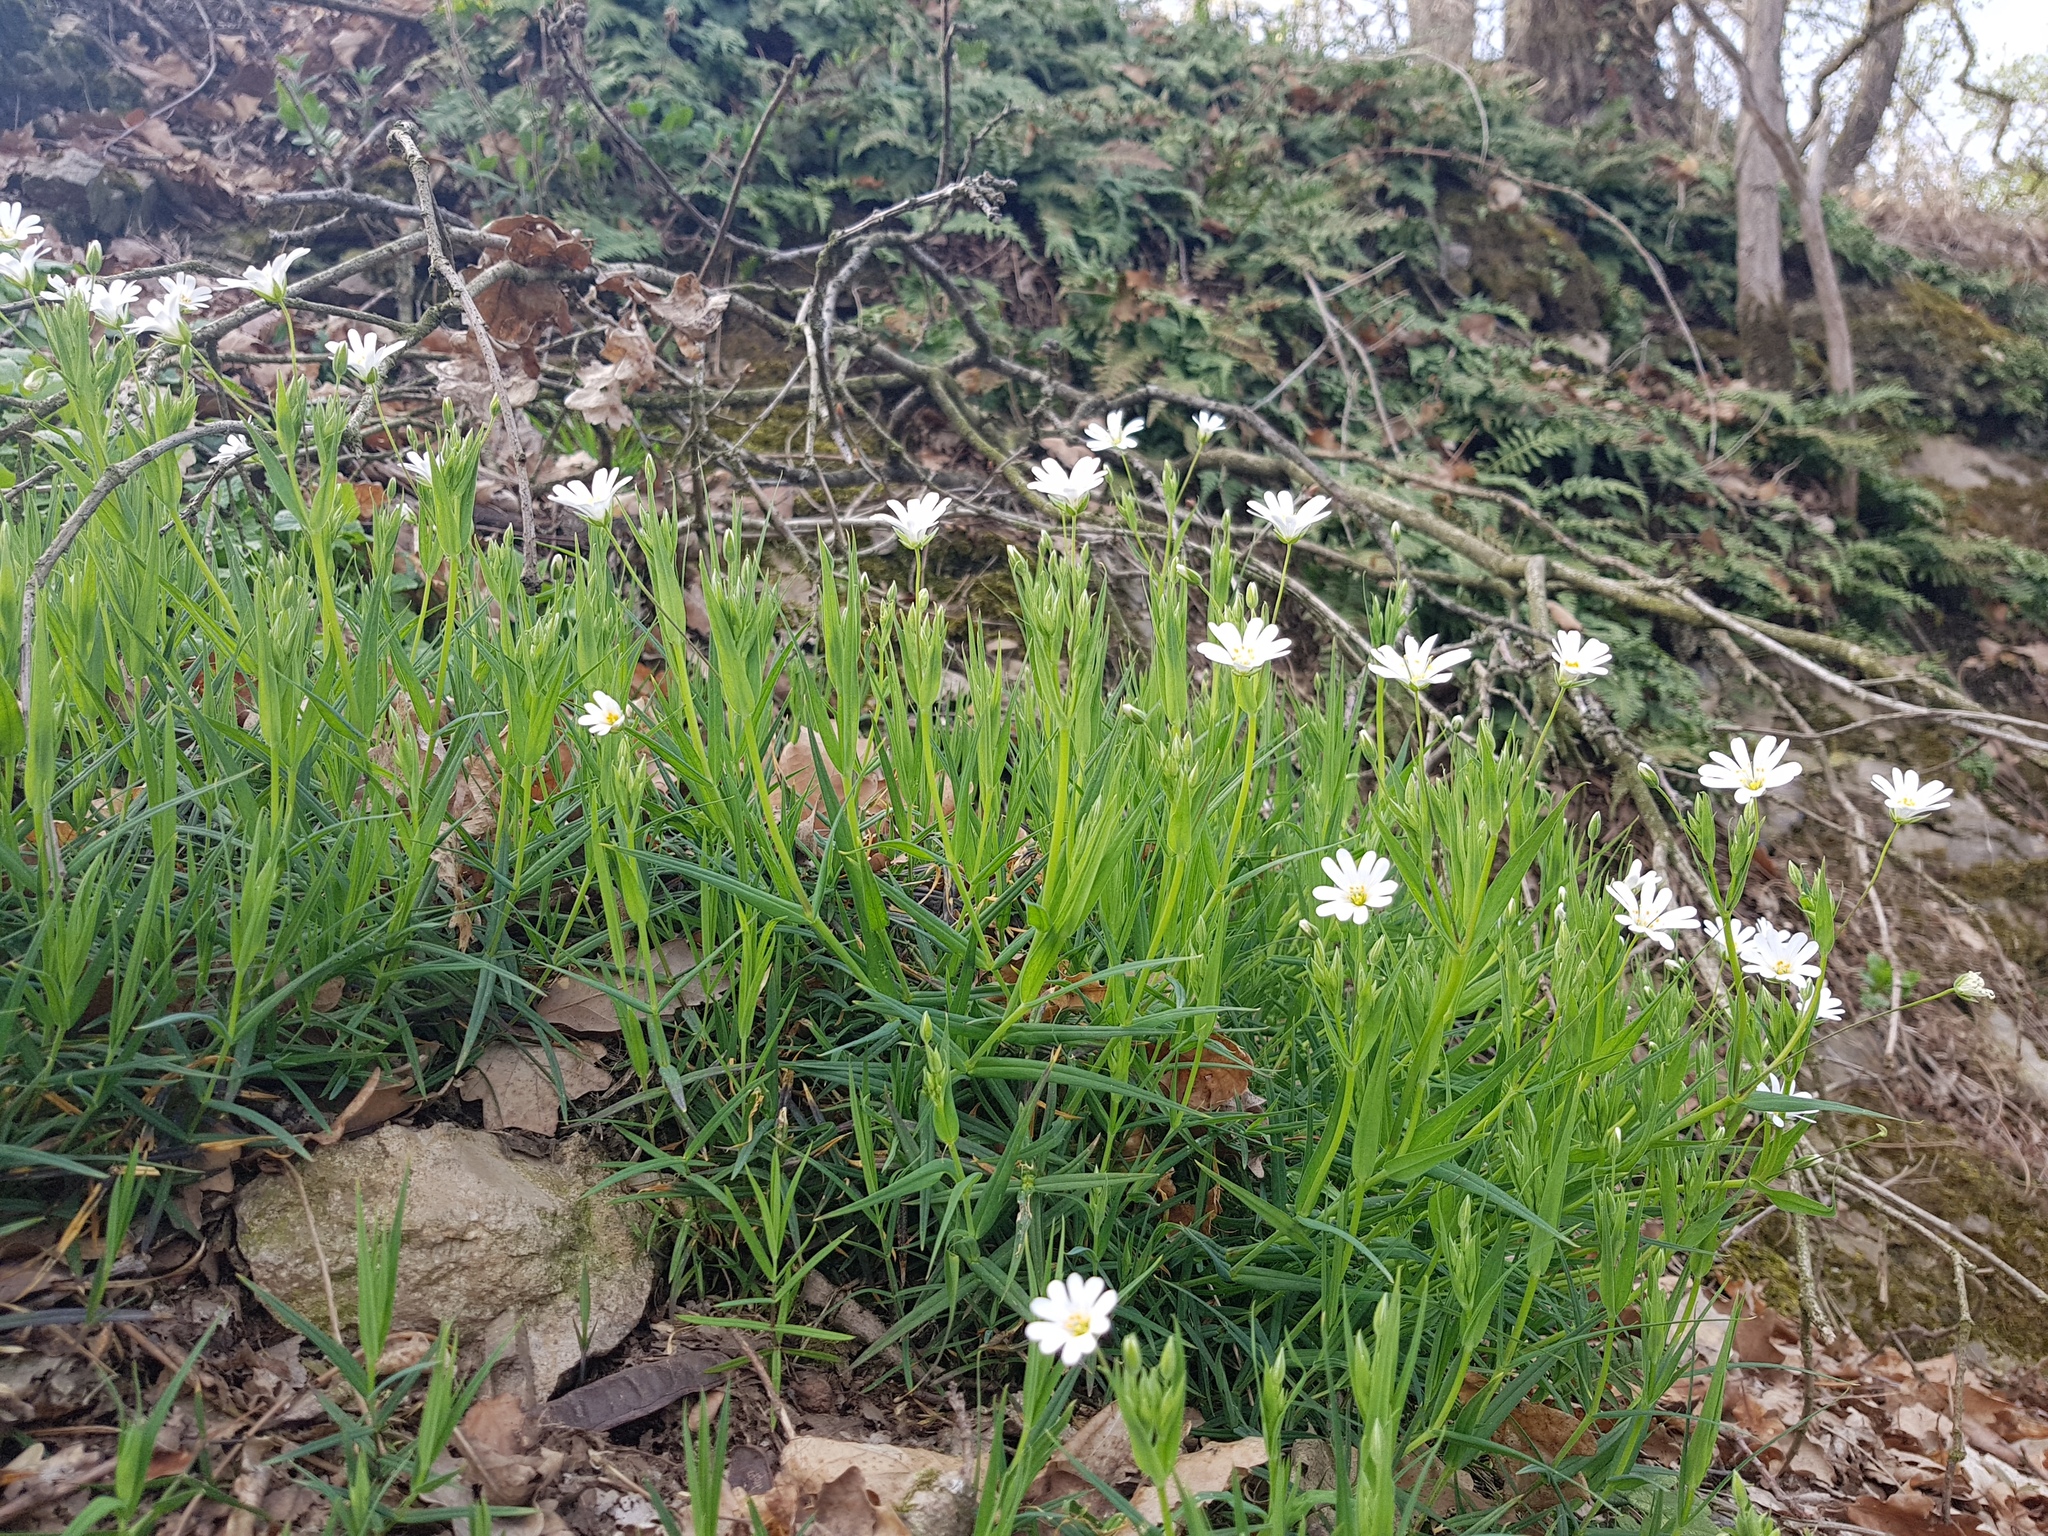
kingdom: Plantae
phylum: Tracheophyta
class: Magnoliopsida
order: Caryophyllales
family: Caryophyllaceae
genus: Rabelera
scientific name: Rabelera holostea
